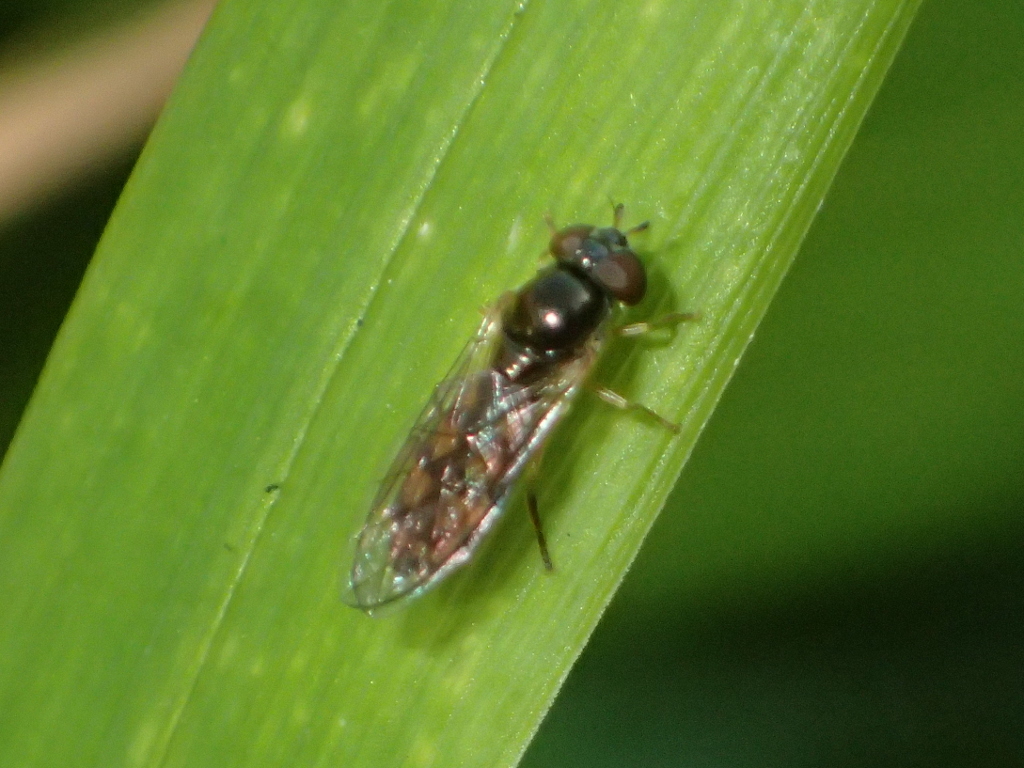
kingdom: Animalia
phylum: Arthropoda
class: Insecta
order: Diptera
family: Syrphidae
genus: Melanostoma
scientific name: Melanostoma fasciatum
